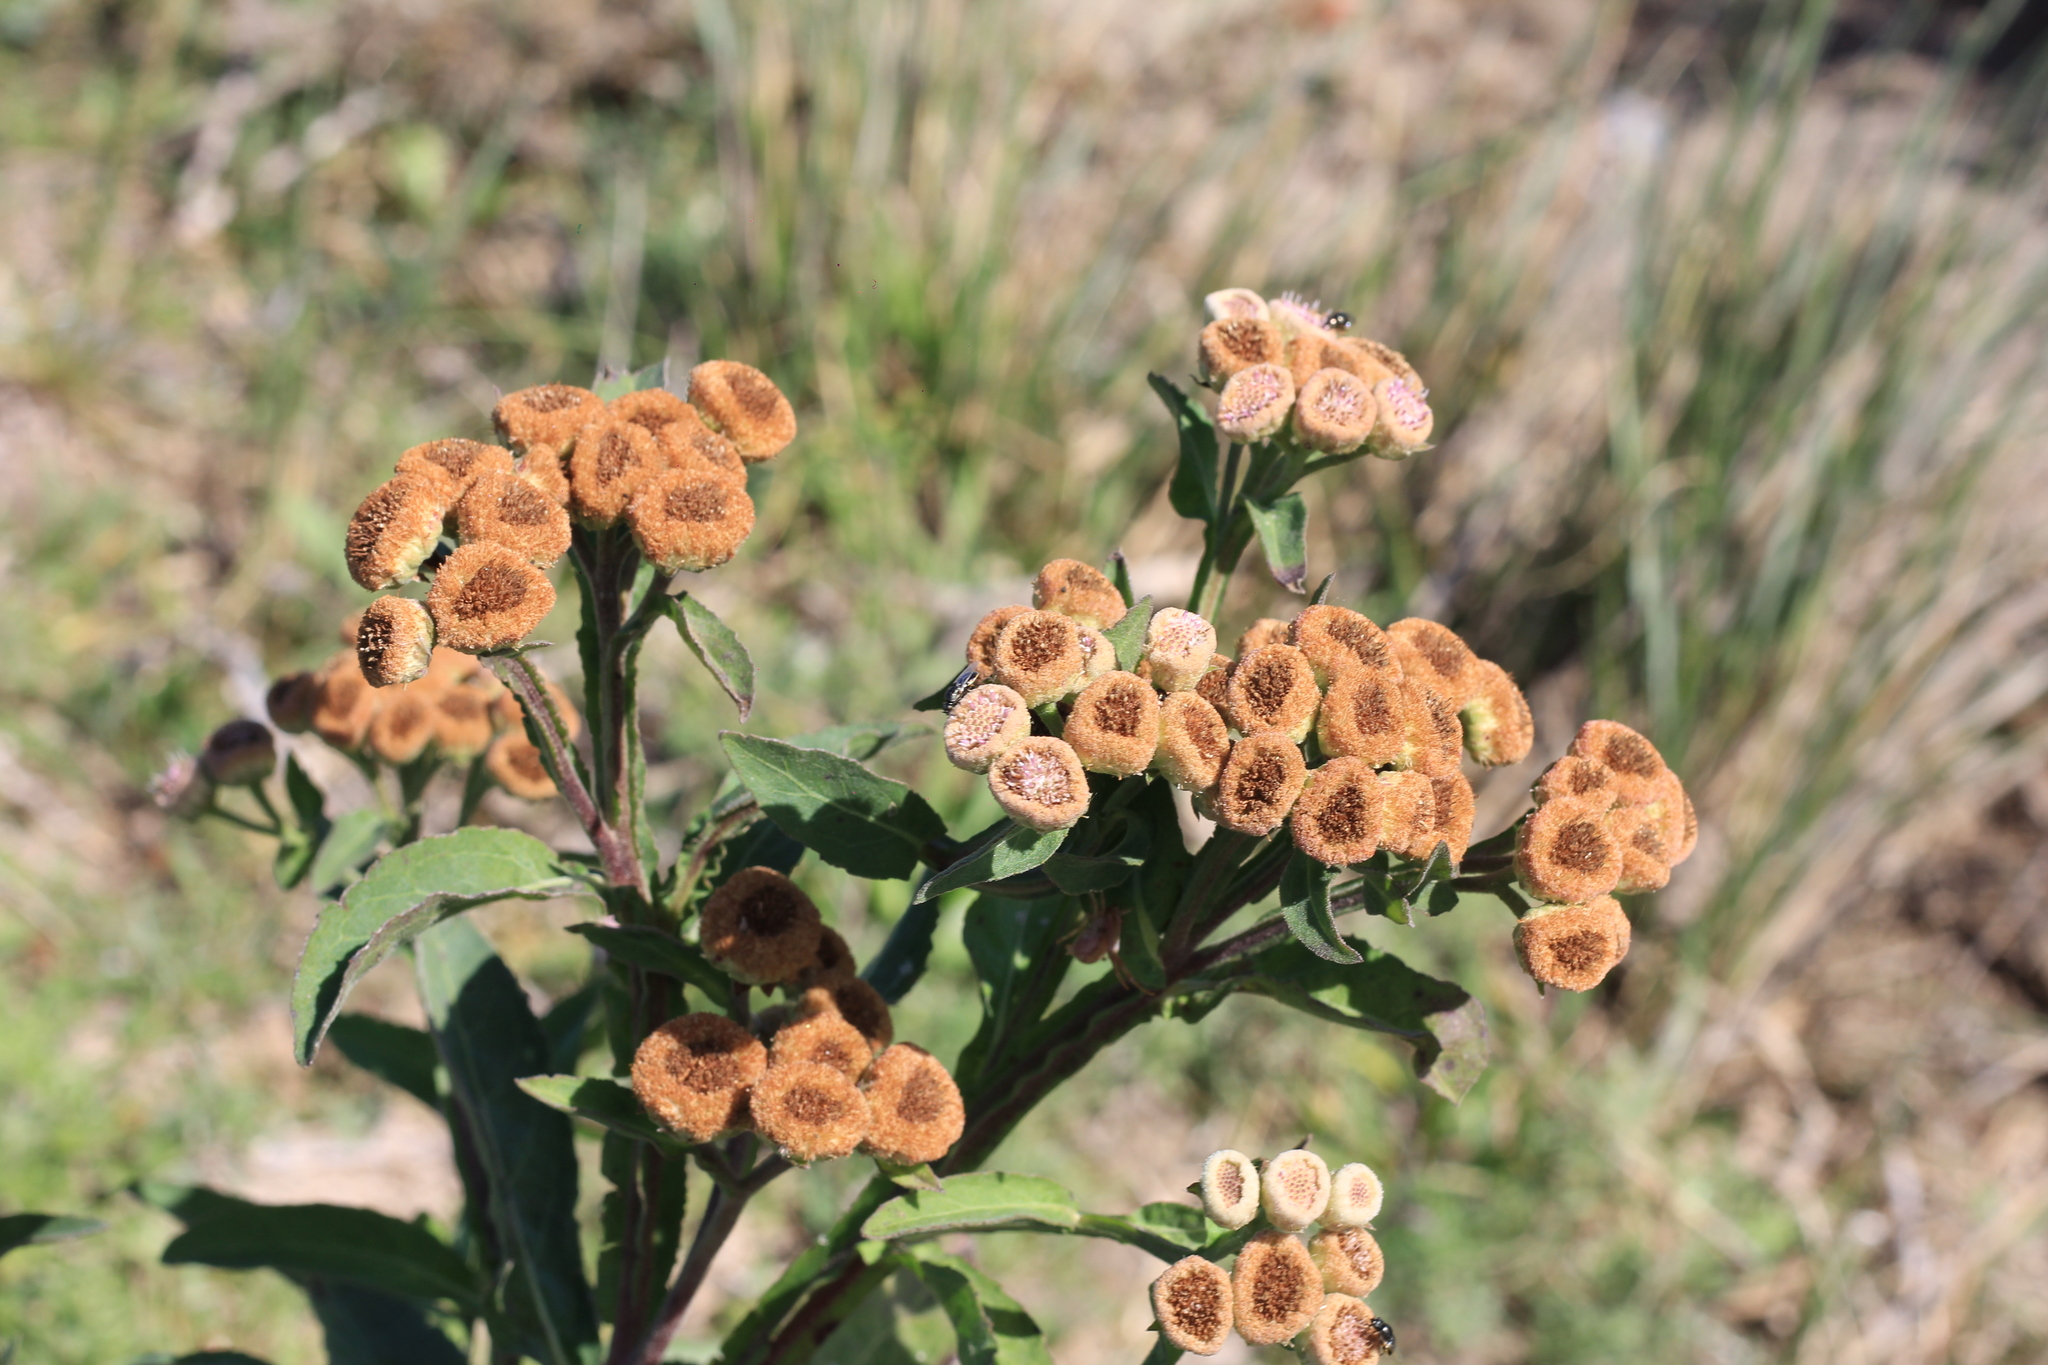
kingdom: Plantae
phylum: Tracheophyta
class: Magnoliopsida
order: Asterales
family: Asteraceae
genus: Pluchea
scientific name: Pluchea sagittalis
